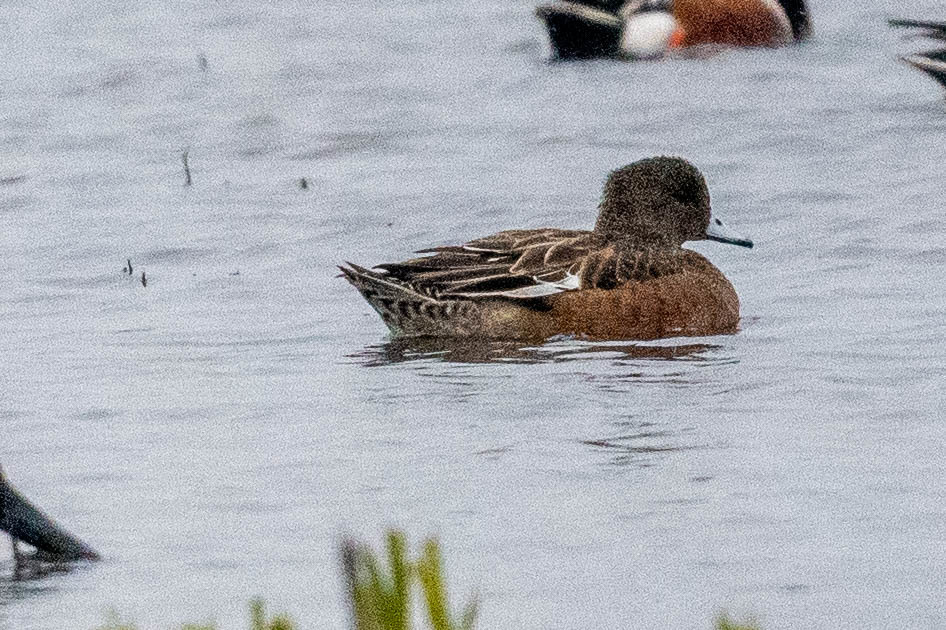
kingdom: Animalia
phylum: Chordata
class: Aves
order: Anseriformes
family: Anatidae
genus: Mareca
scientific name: Mareca americana
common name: American wigeon
